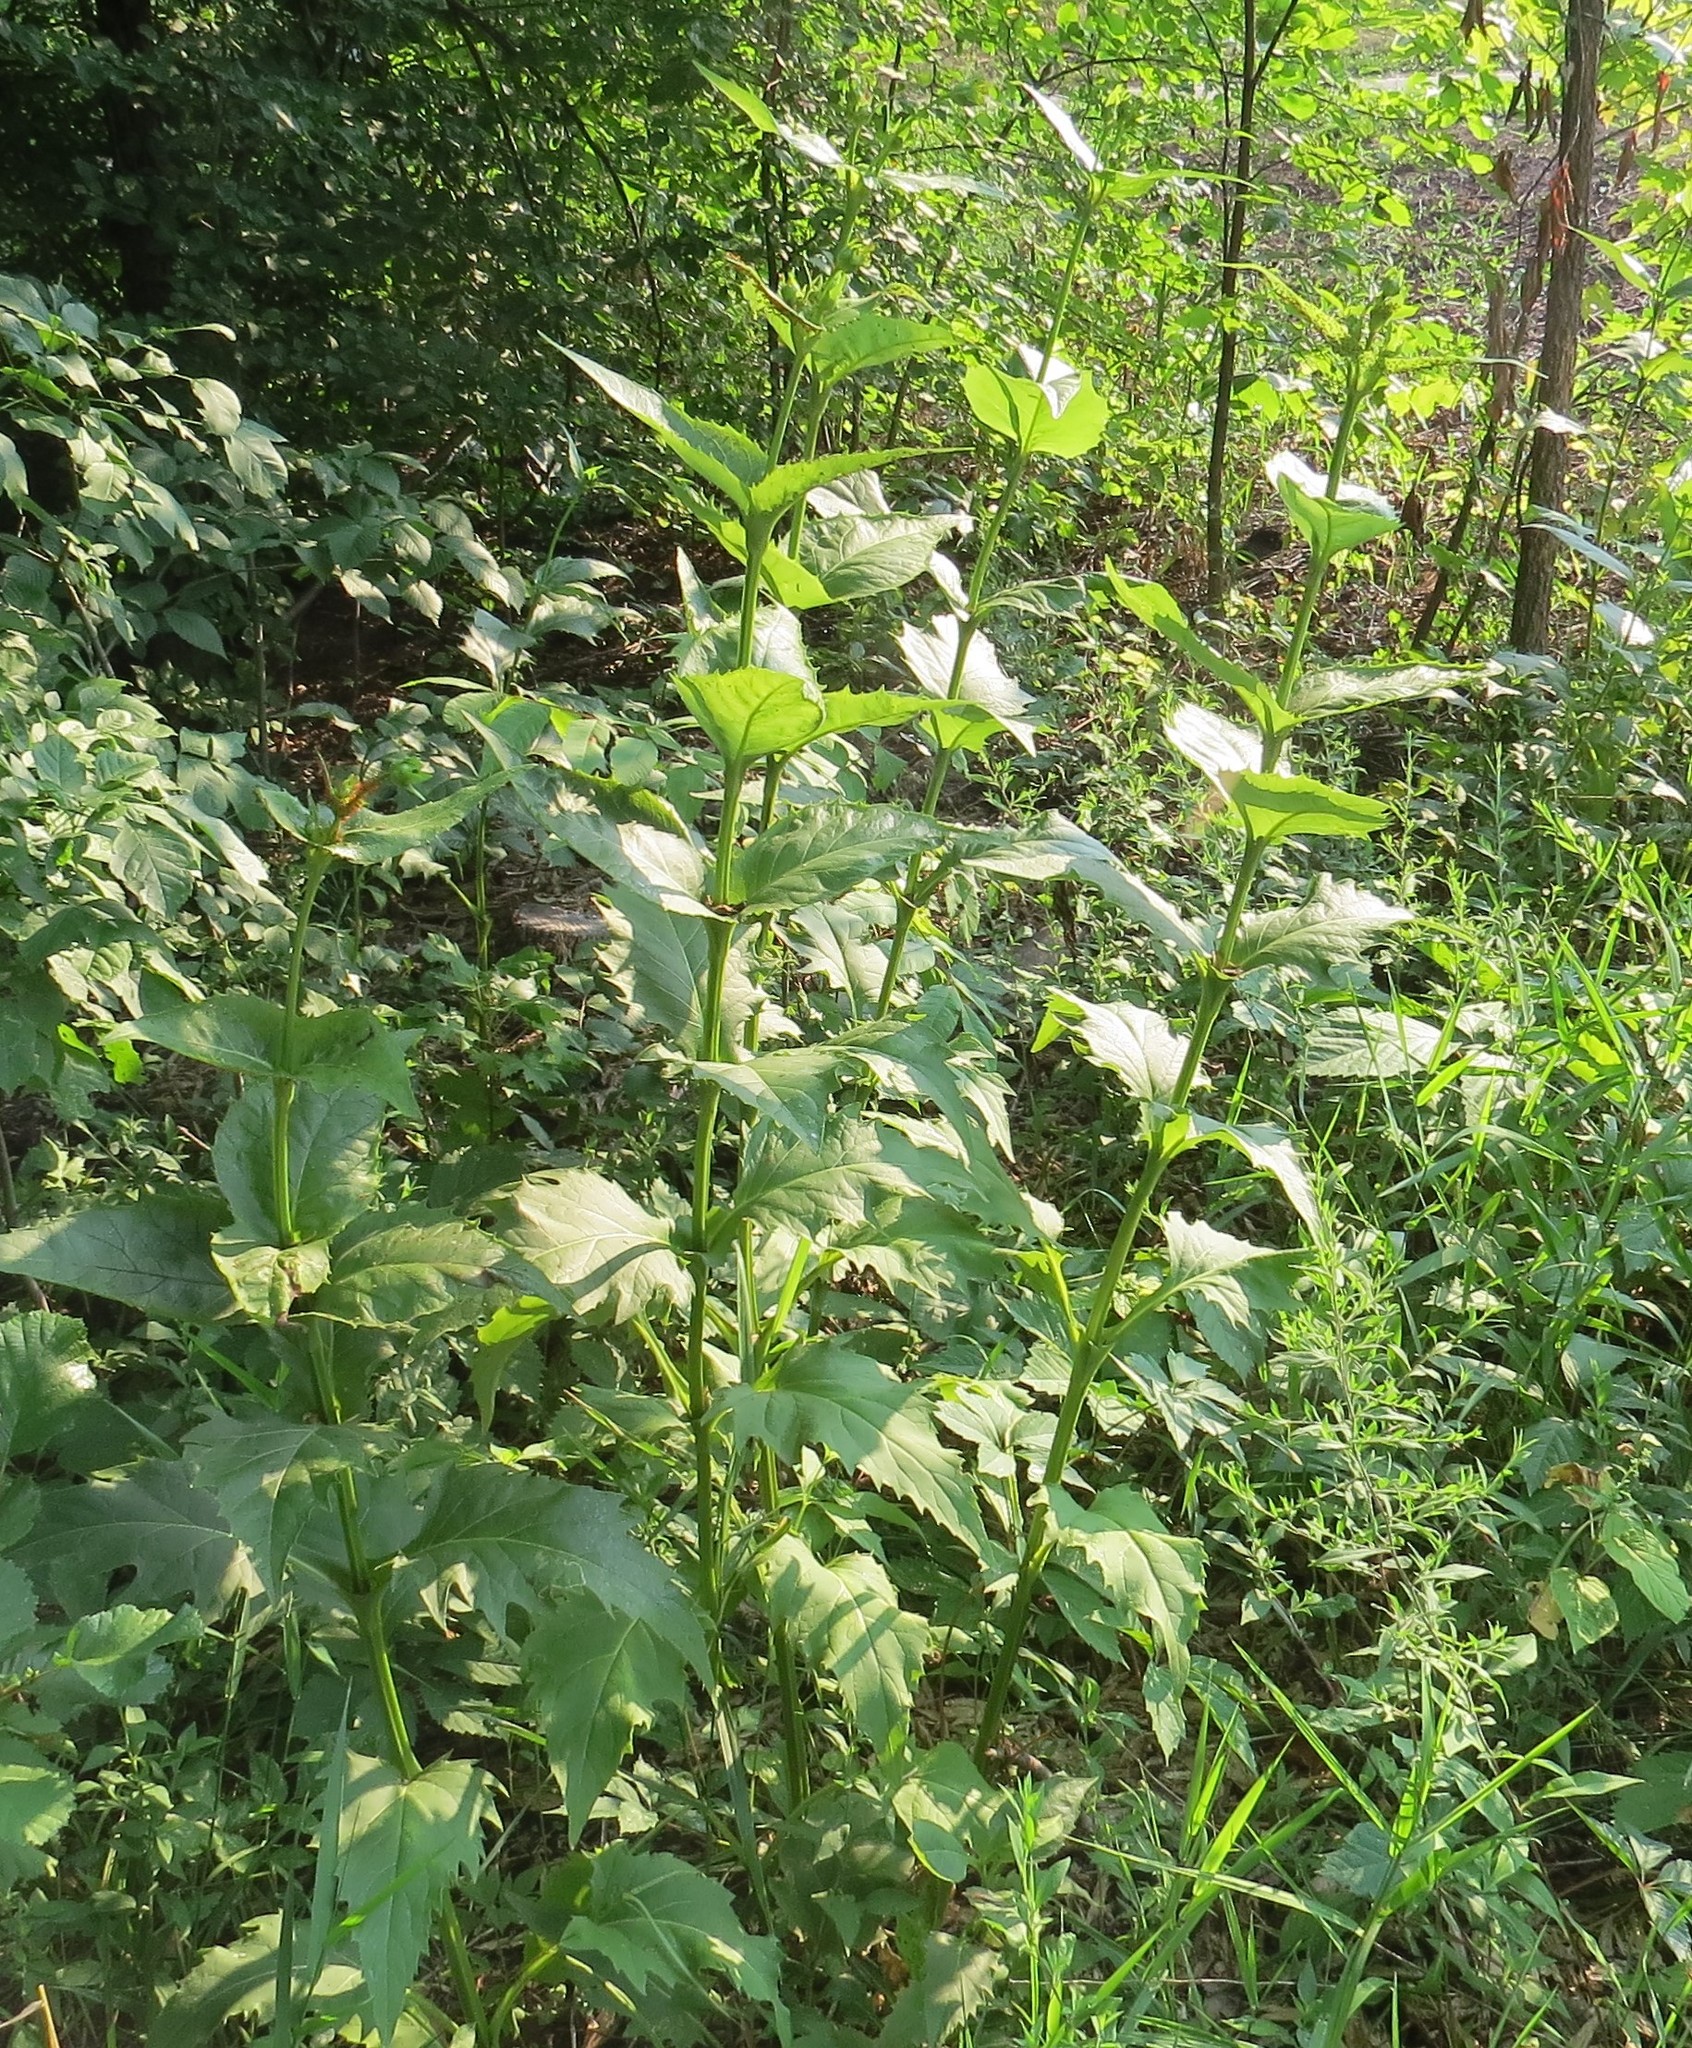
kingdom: Plantae
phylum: Tracheophyta
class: Magnoliopsida
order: Asterales
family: Asteraceae
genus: Silphium
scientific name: Silphium perfoliatum
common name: Cup-plant
